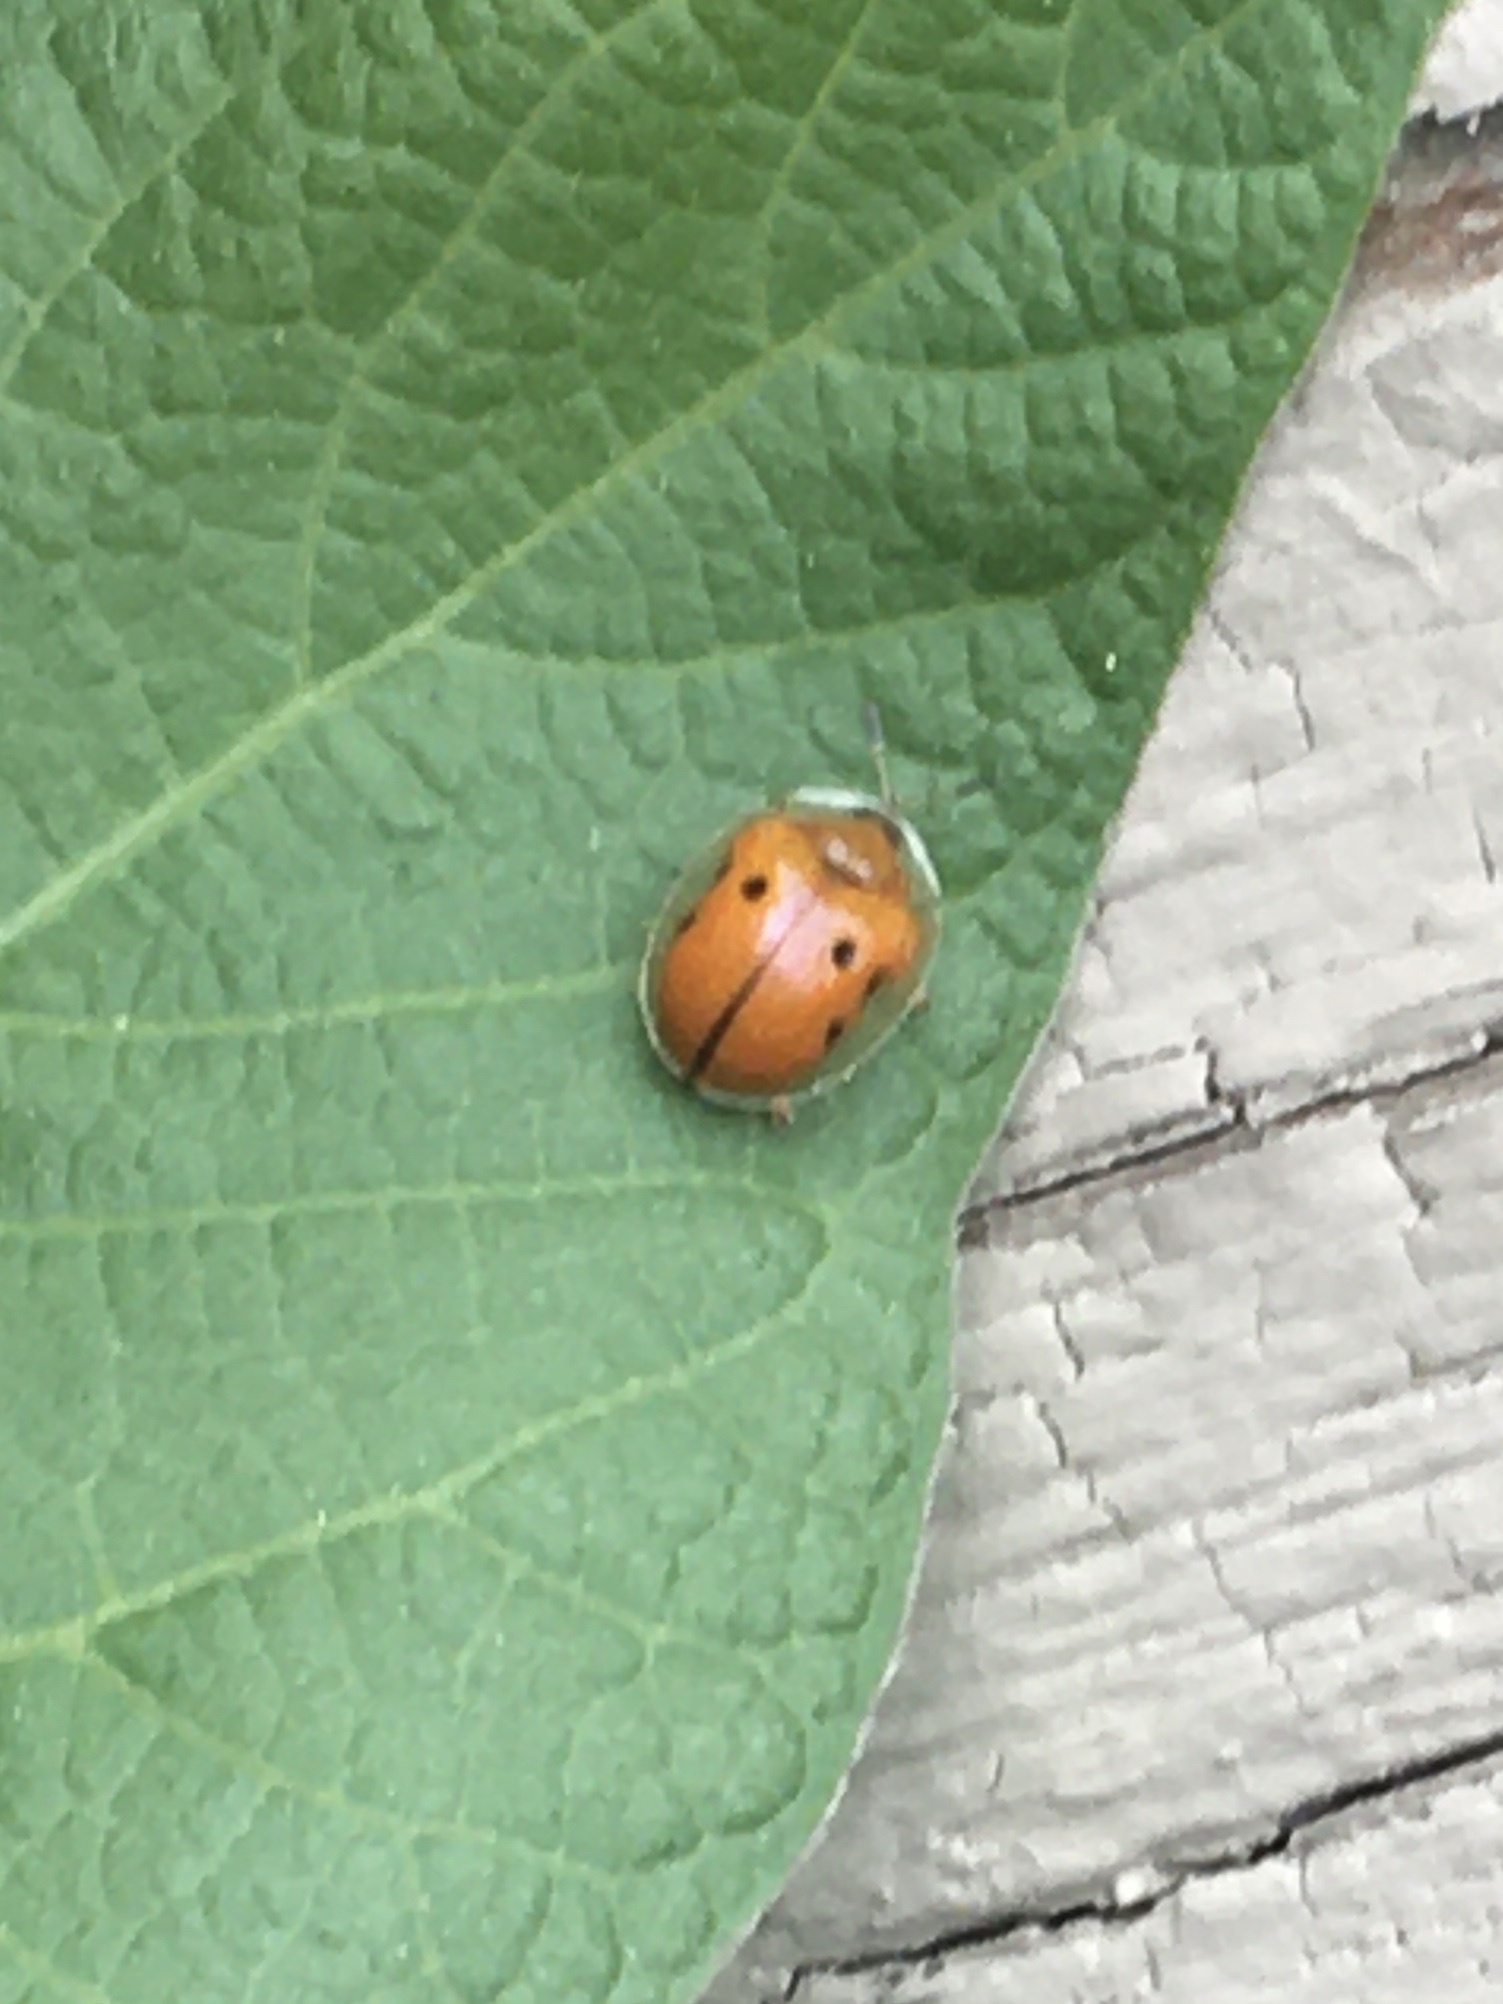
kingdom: Animalia
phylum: Arthropoda
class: Insecta
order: Coleoptera
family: Chrysomelidae
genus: Charidotella
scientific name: Charidotella sexpunctata
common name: Golden tortoise beetle
